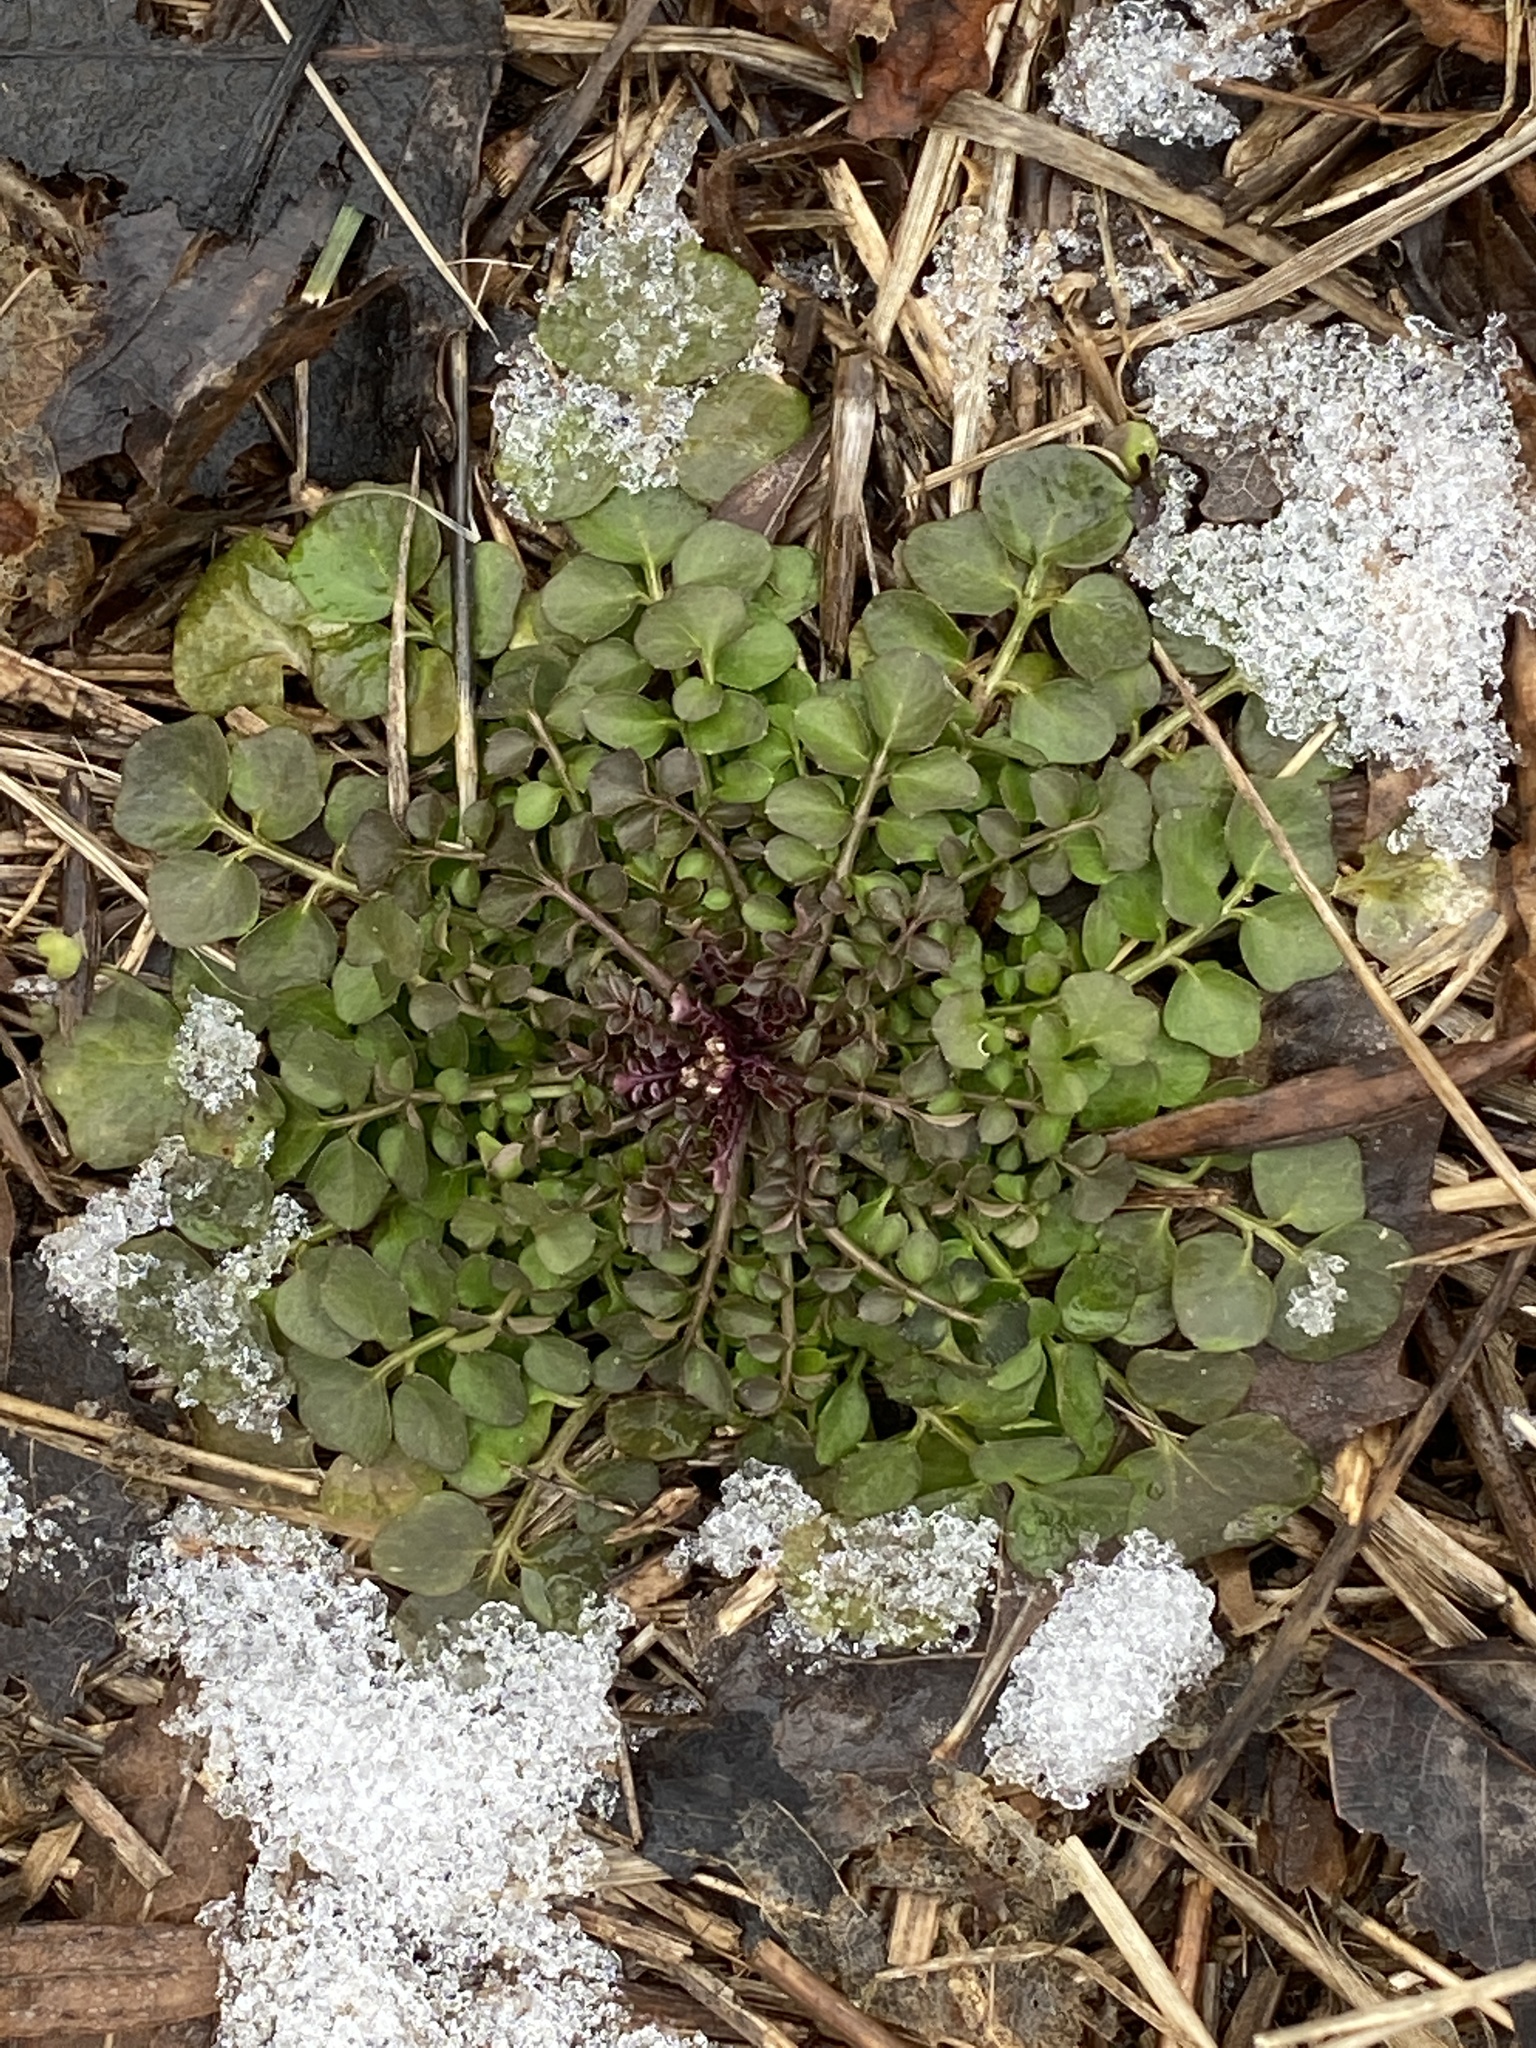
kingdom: Plantae
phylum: Tracheophyta
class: Magnoliopsida
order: Brassicales
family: Brassicaceae
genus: Cardamine
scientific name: Cardamine hirsuta
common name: Hairy bittercress
